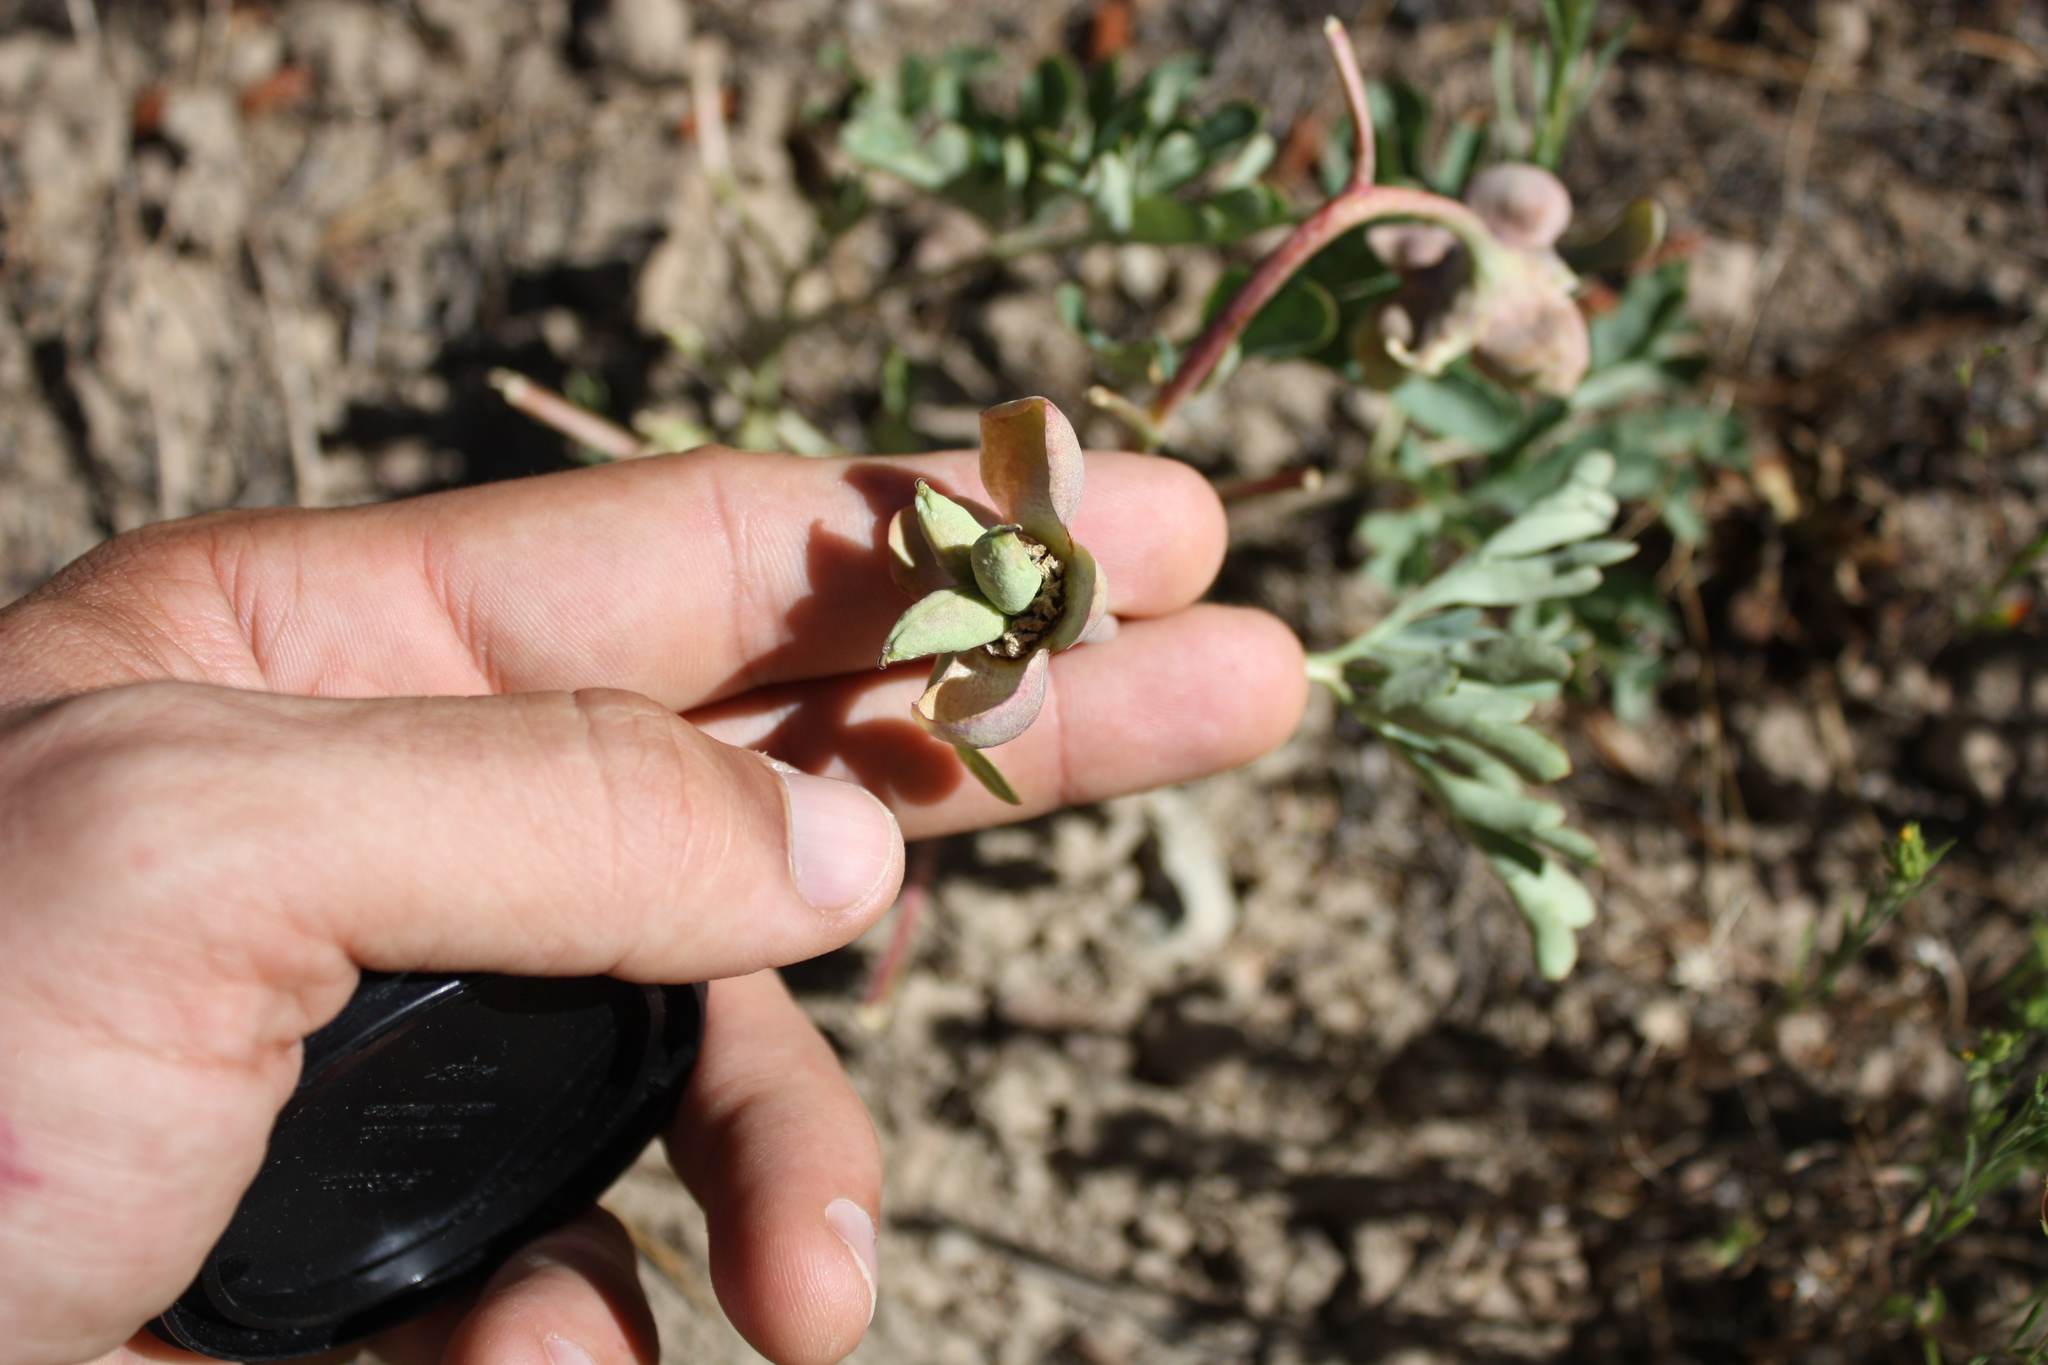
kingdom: Plantae
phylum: Tracheophyta
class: Magnoliopsida
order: Saxifragales
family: Paeoniaceae
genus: Paeonia
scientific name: Paeonia brownii
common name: Brown's peony
